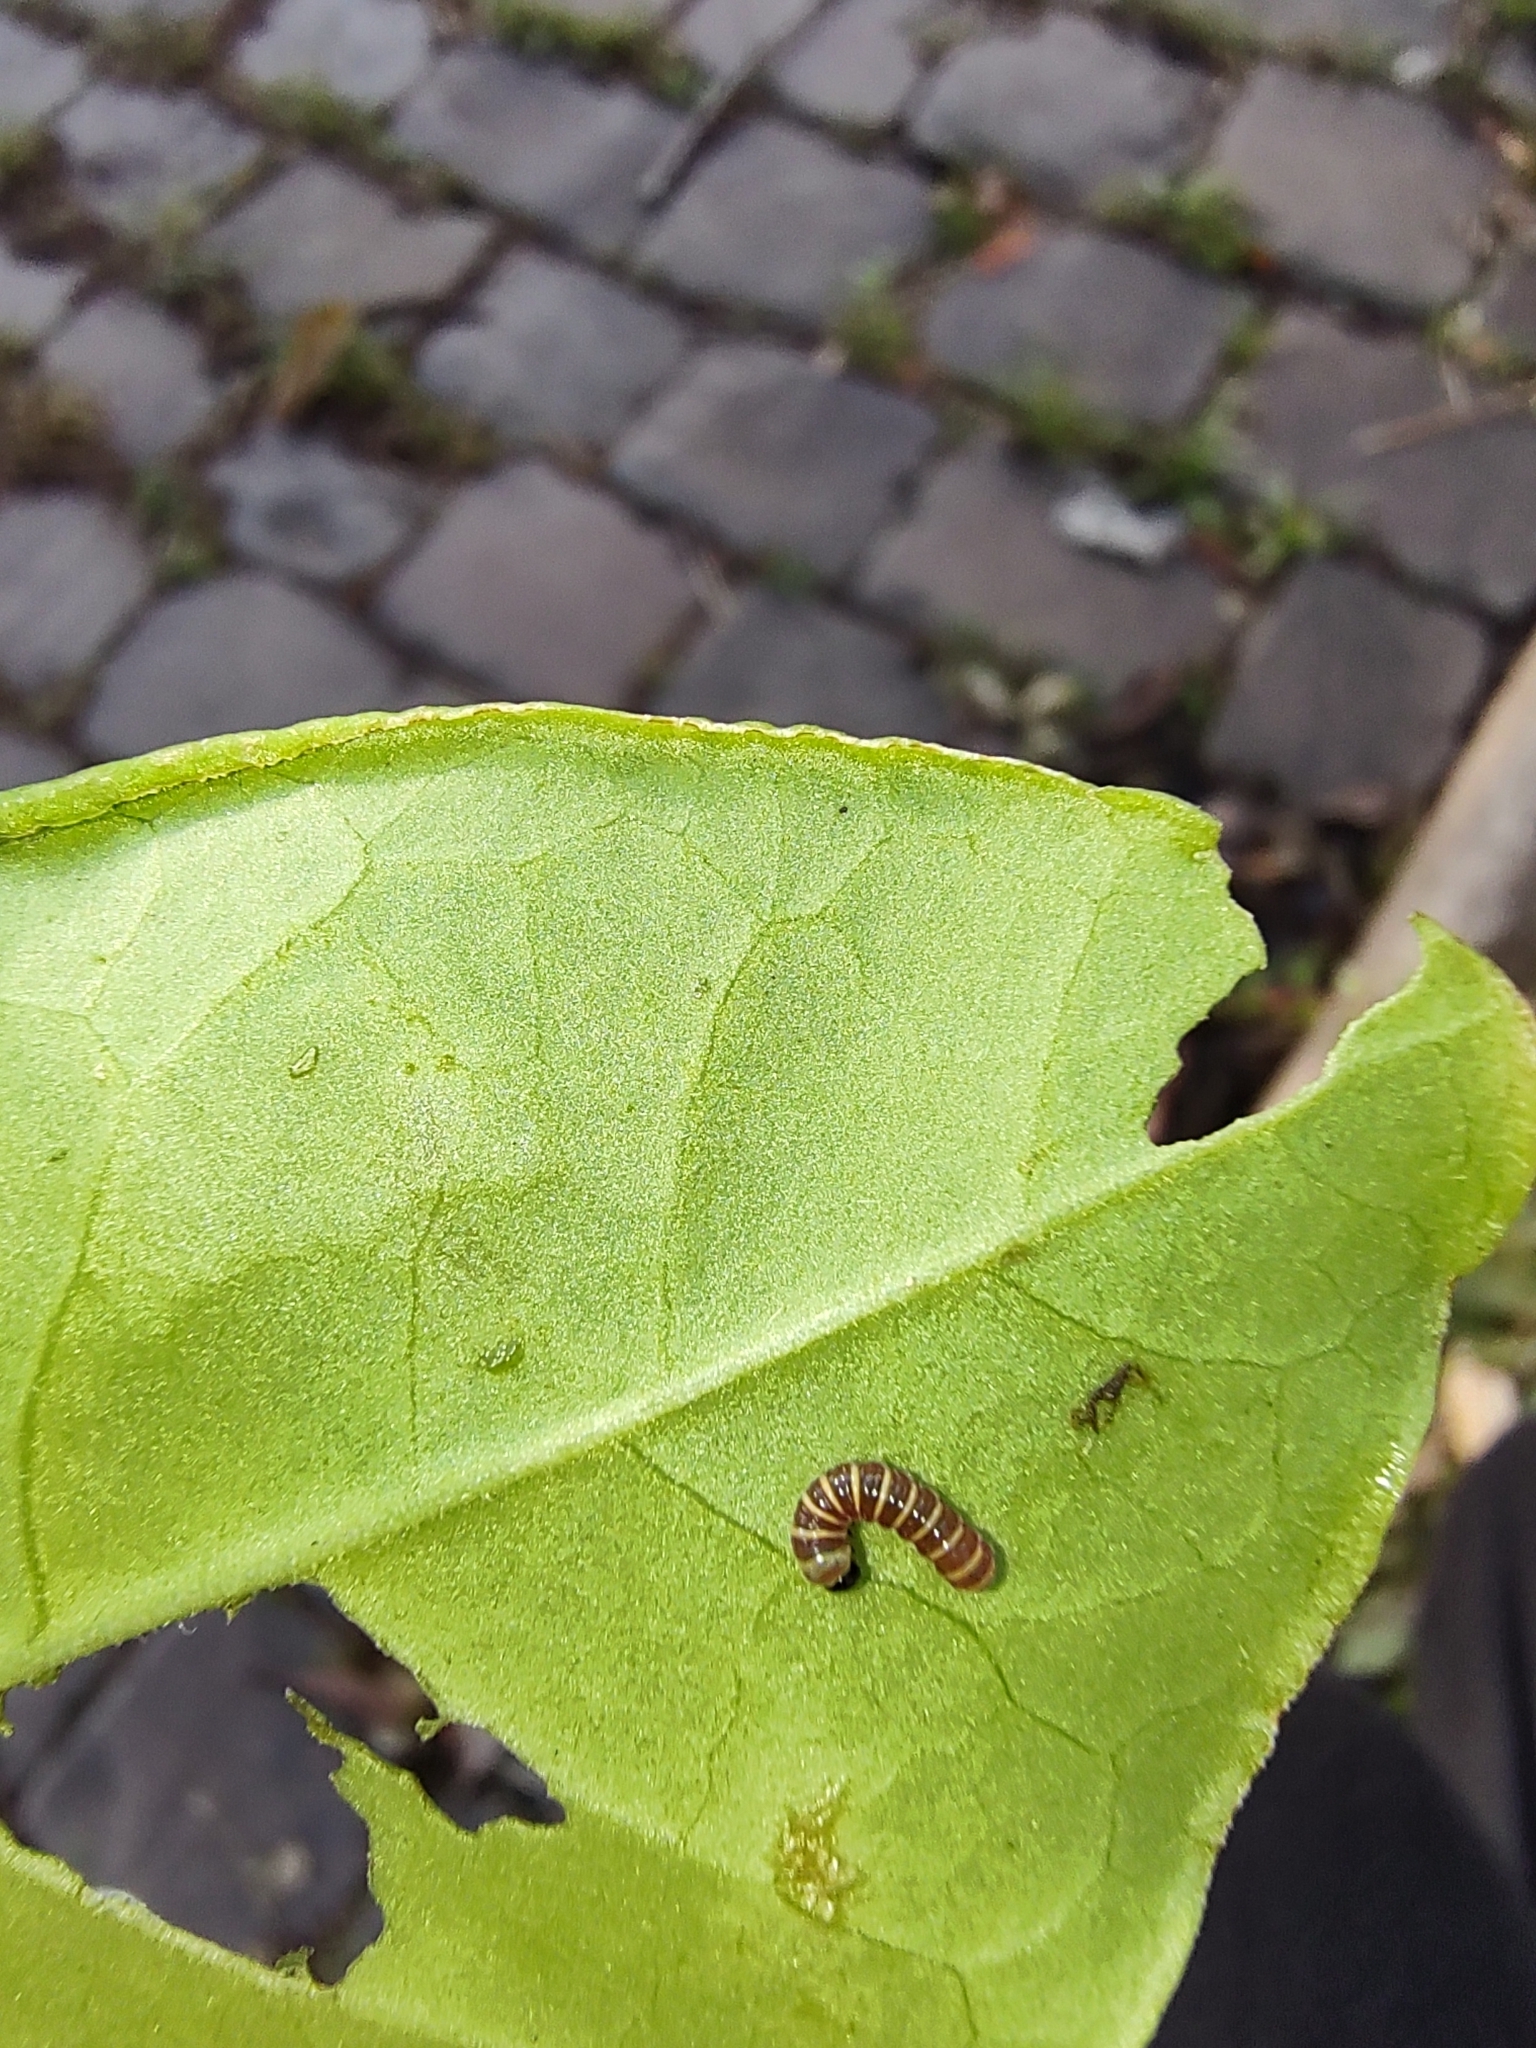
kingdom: Animalia
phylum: Arthropoda
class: Insecta
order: Lepidoptera
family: Nymphalidae
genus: Methona
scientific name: Methona themisto
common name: Themisto amberwing
